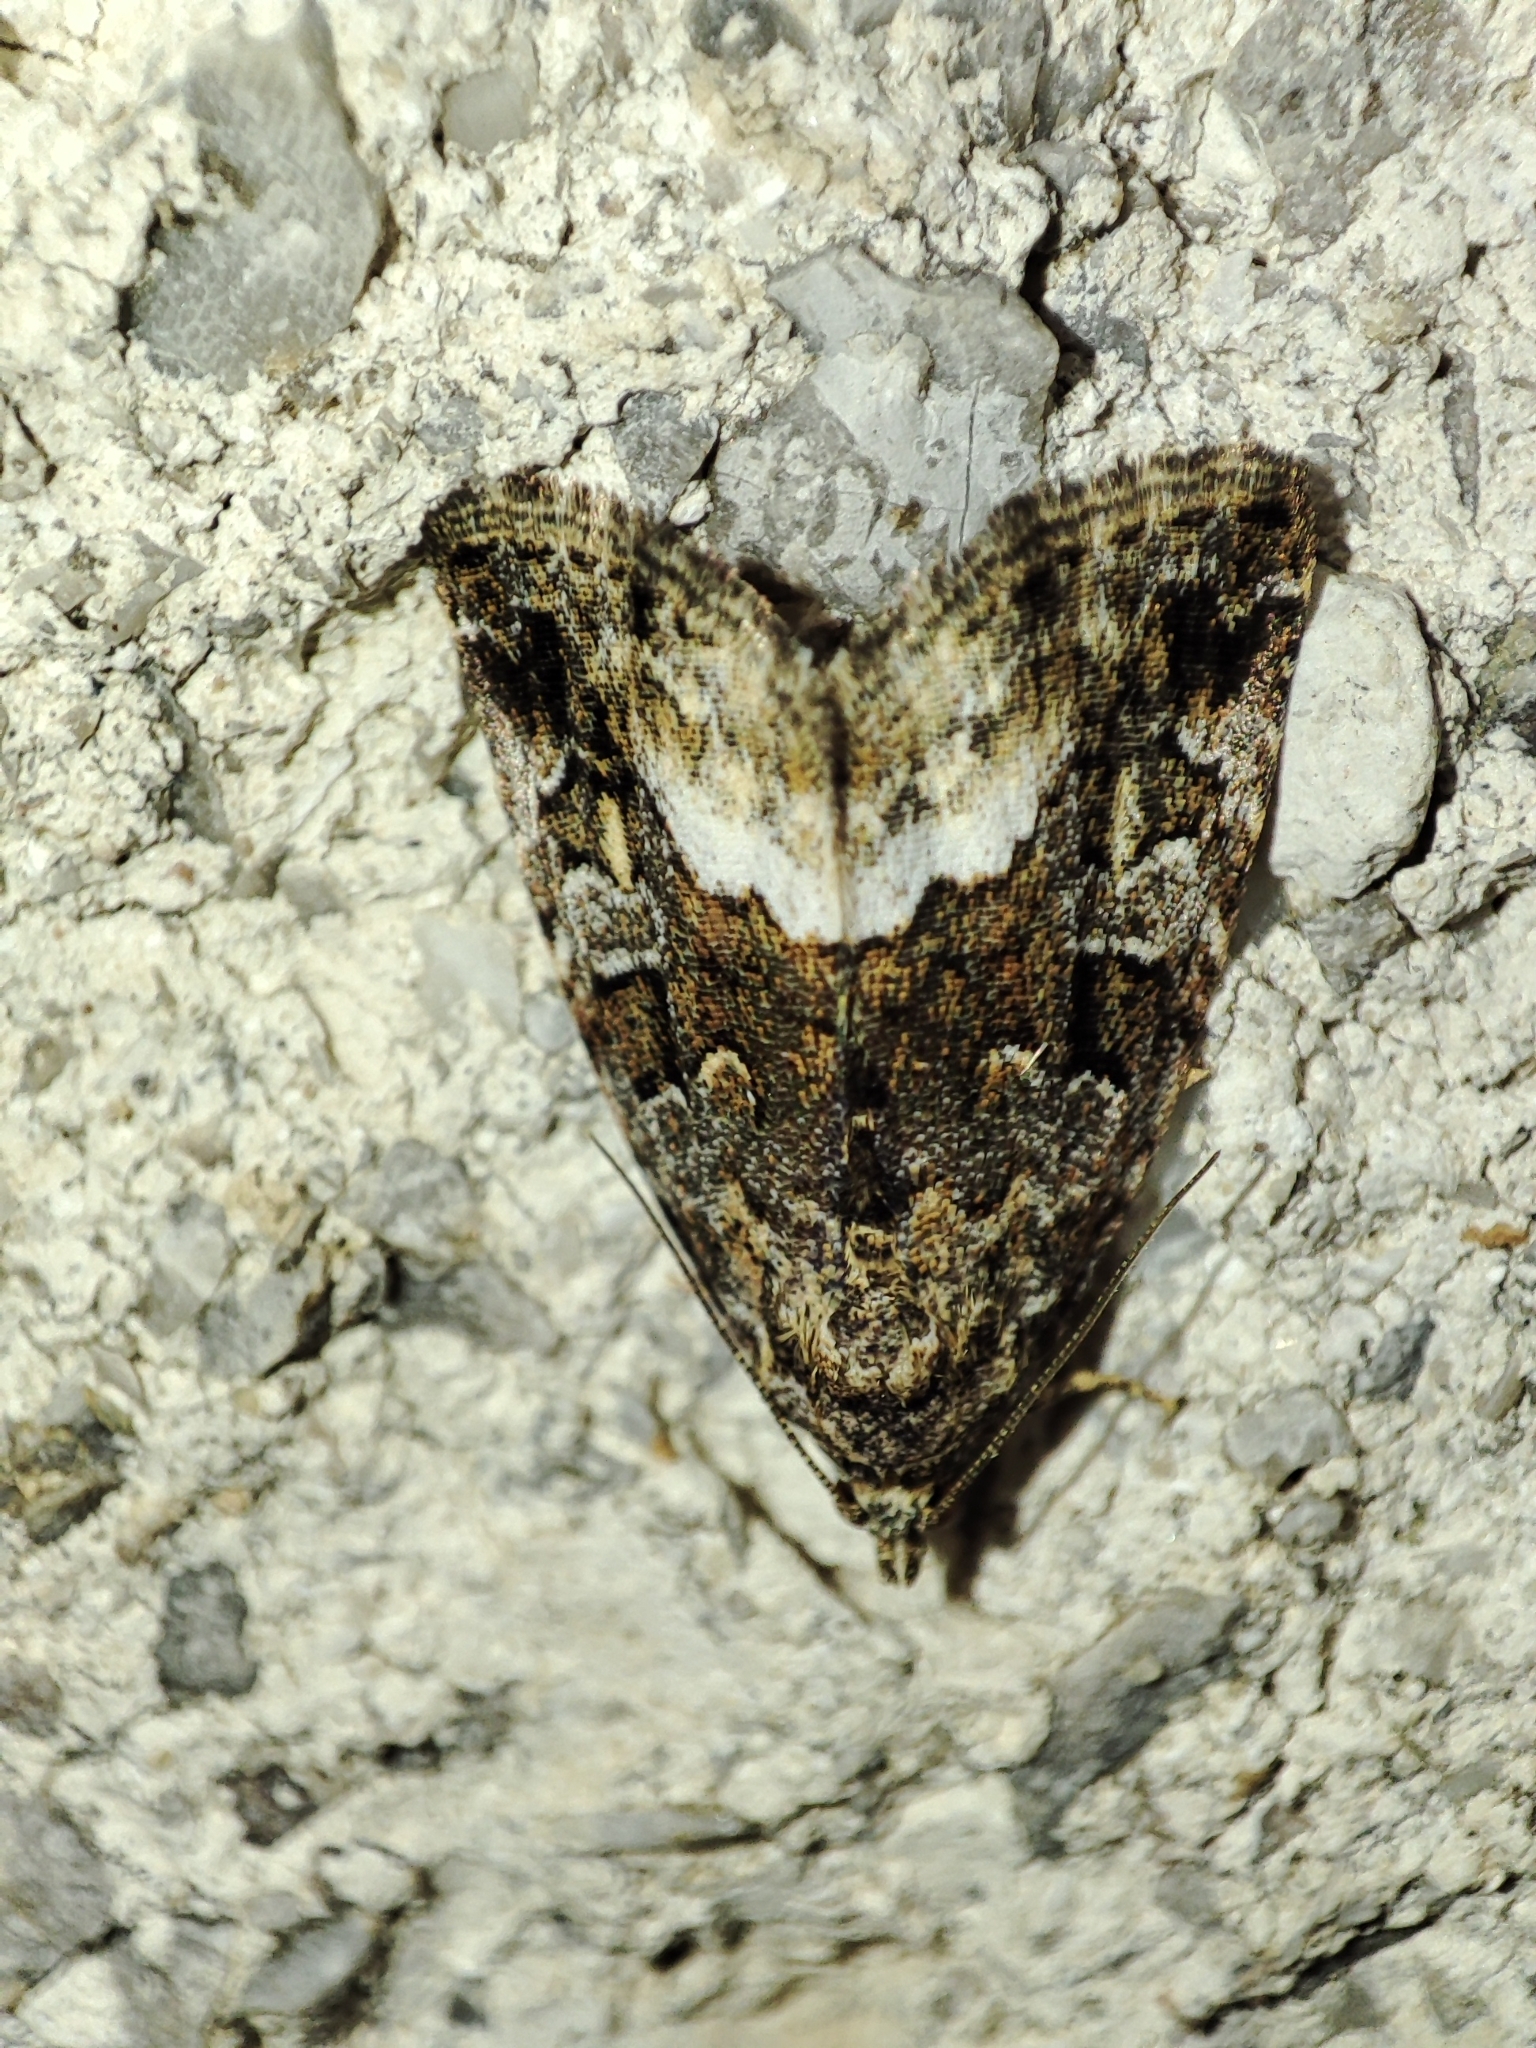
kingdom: Animalia
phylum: Arthropoda
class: Insecta
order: Lepidoptera
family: Noctuidae
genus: Deltote
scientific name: Deltote pygarga
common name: Marbled white spot
